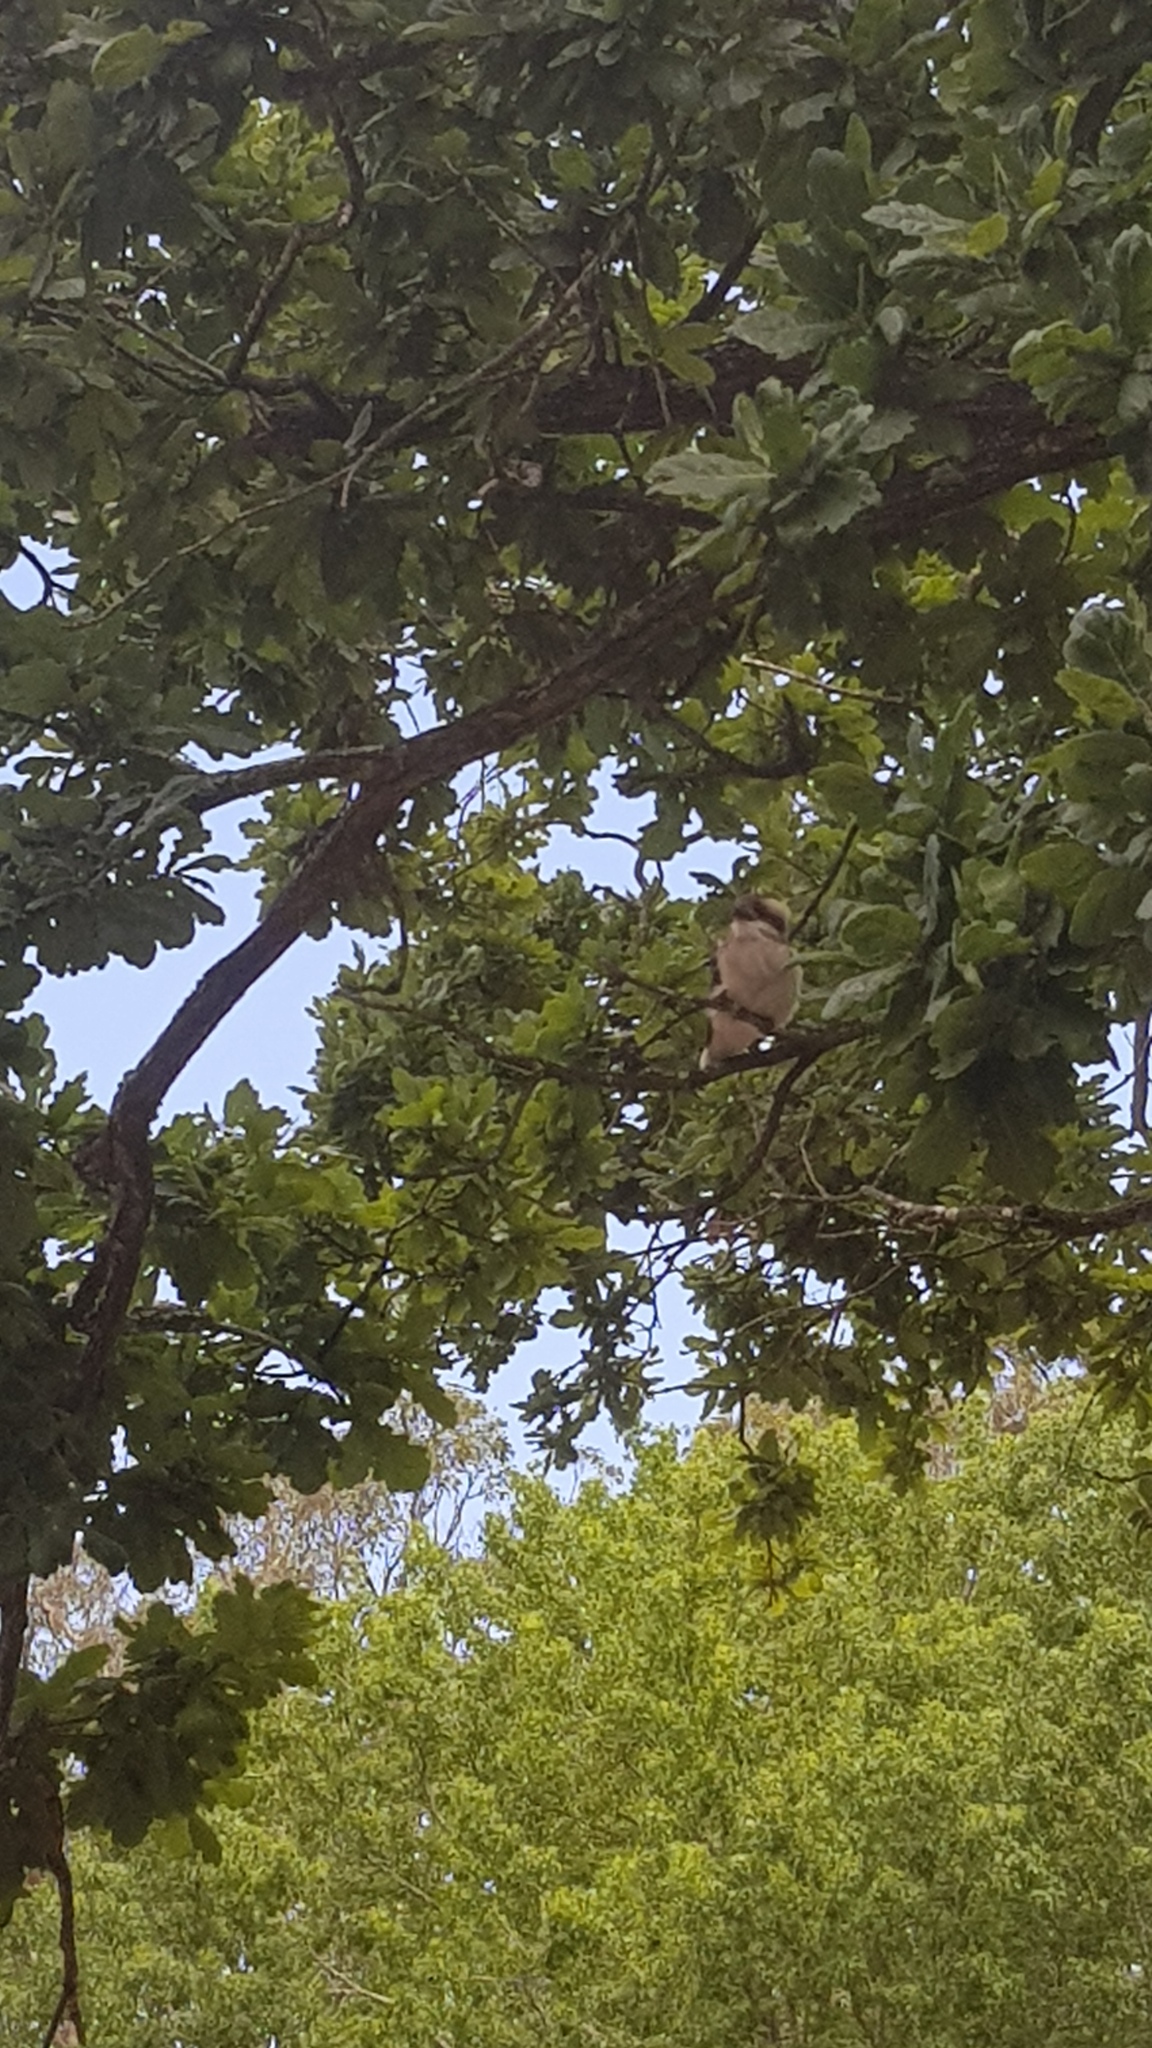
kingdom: Animalia
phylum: Chordata
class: Aves
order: Coraciiformes
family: Alcedinidae
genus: Dacelo
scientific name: Dacelo novaeguineae
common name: Laughing kookaburra
